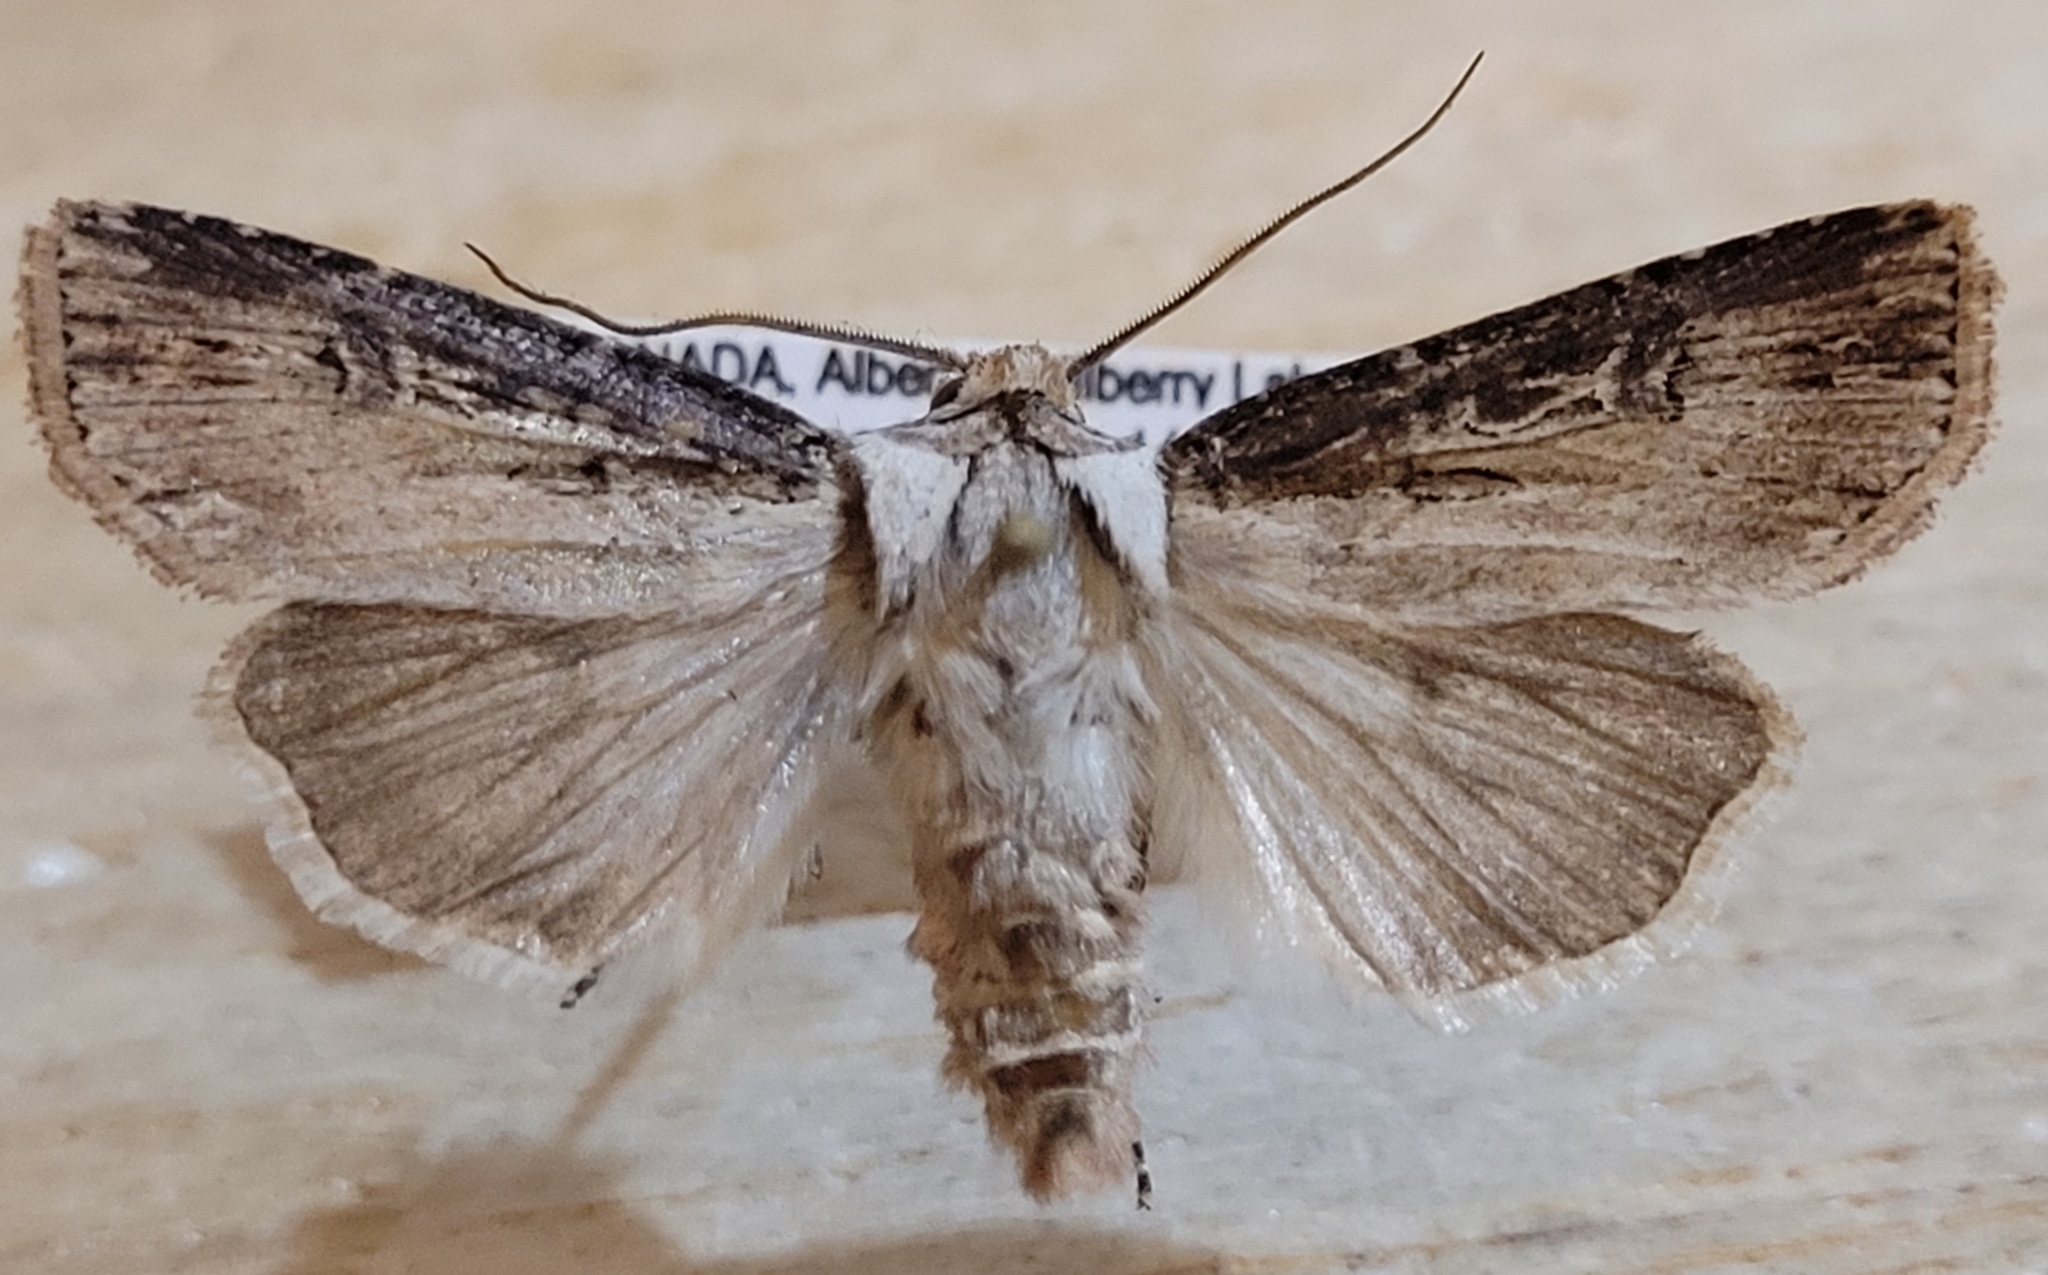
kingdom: Animalia
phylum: Arthropoda
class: Insecta
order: Lepidoptera
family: Noctuidae
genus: Agrotis
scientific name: Agrotis stigmosa
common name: Spotted dart
